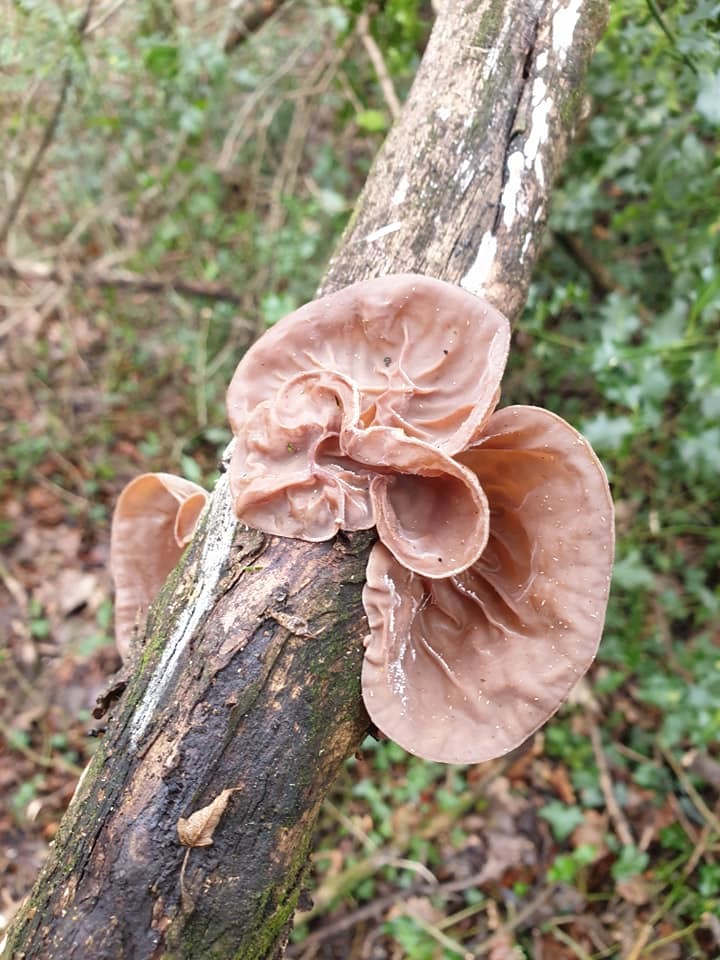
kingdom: Fungi
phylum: Basidiomycota
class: Agaricomycetes
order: Auriculariales
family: Auriculariaceae
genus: Auricularia
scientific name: Auricularia auricula-judae
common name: Jelly ear
